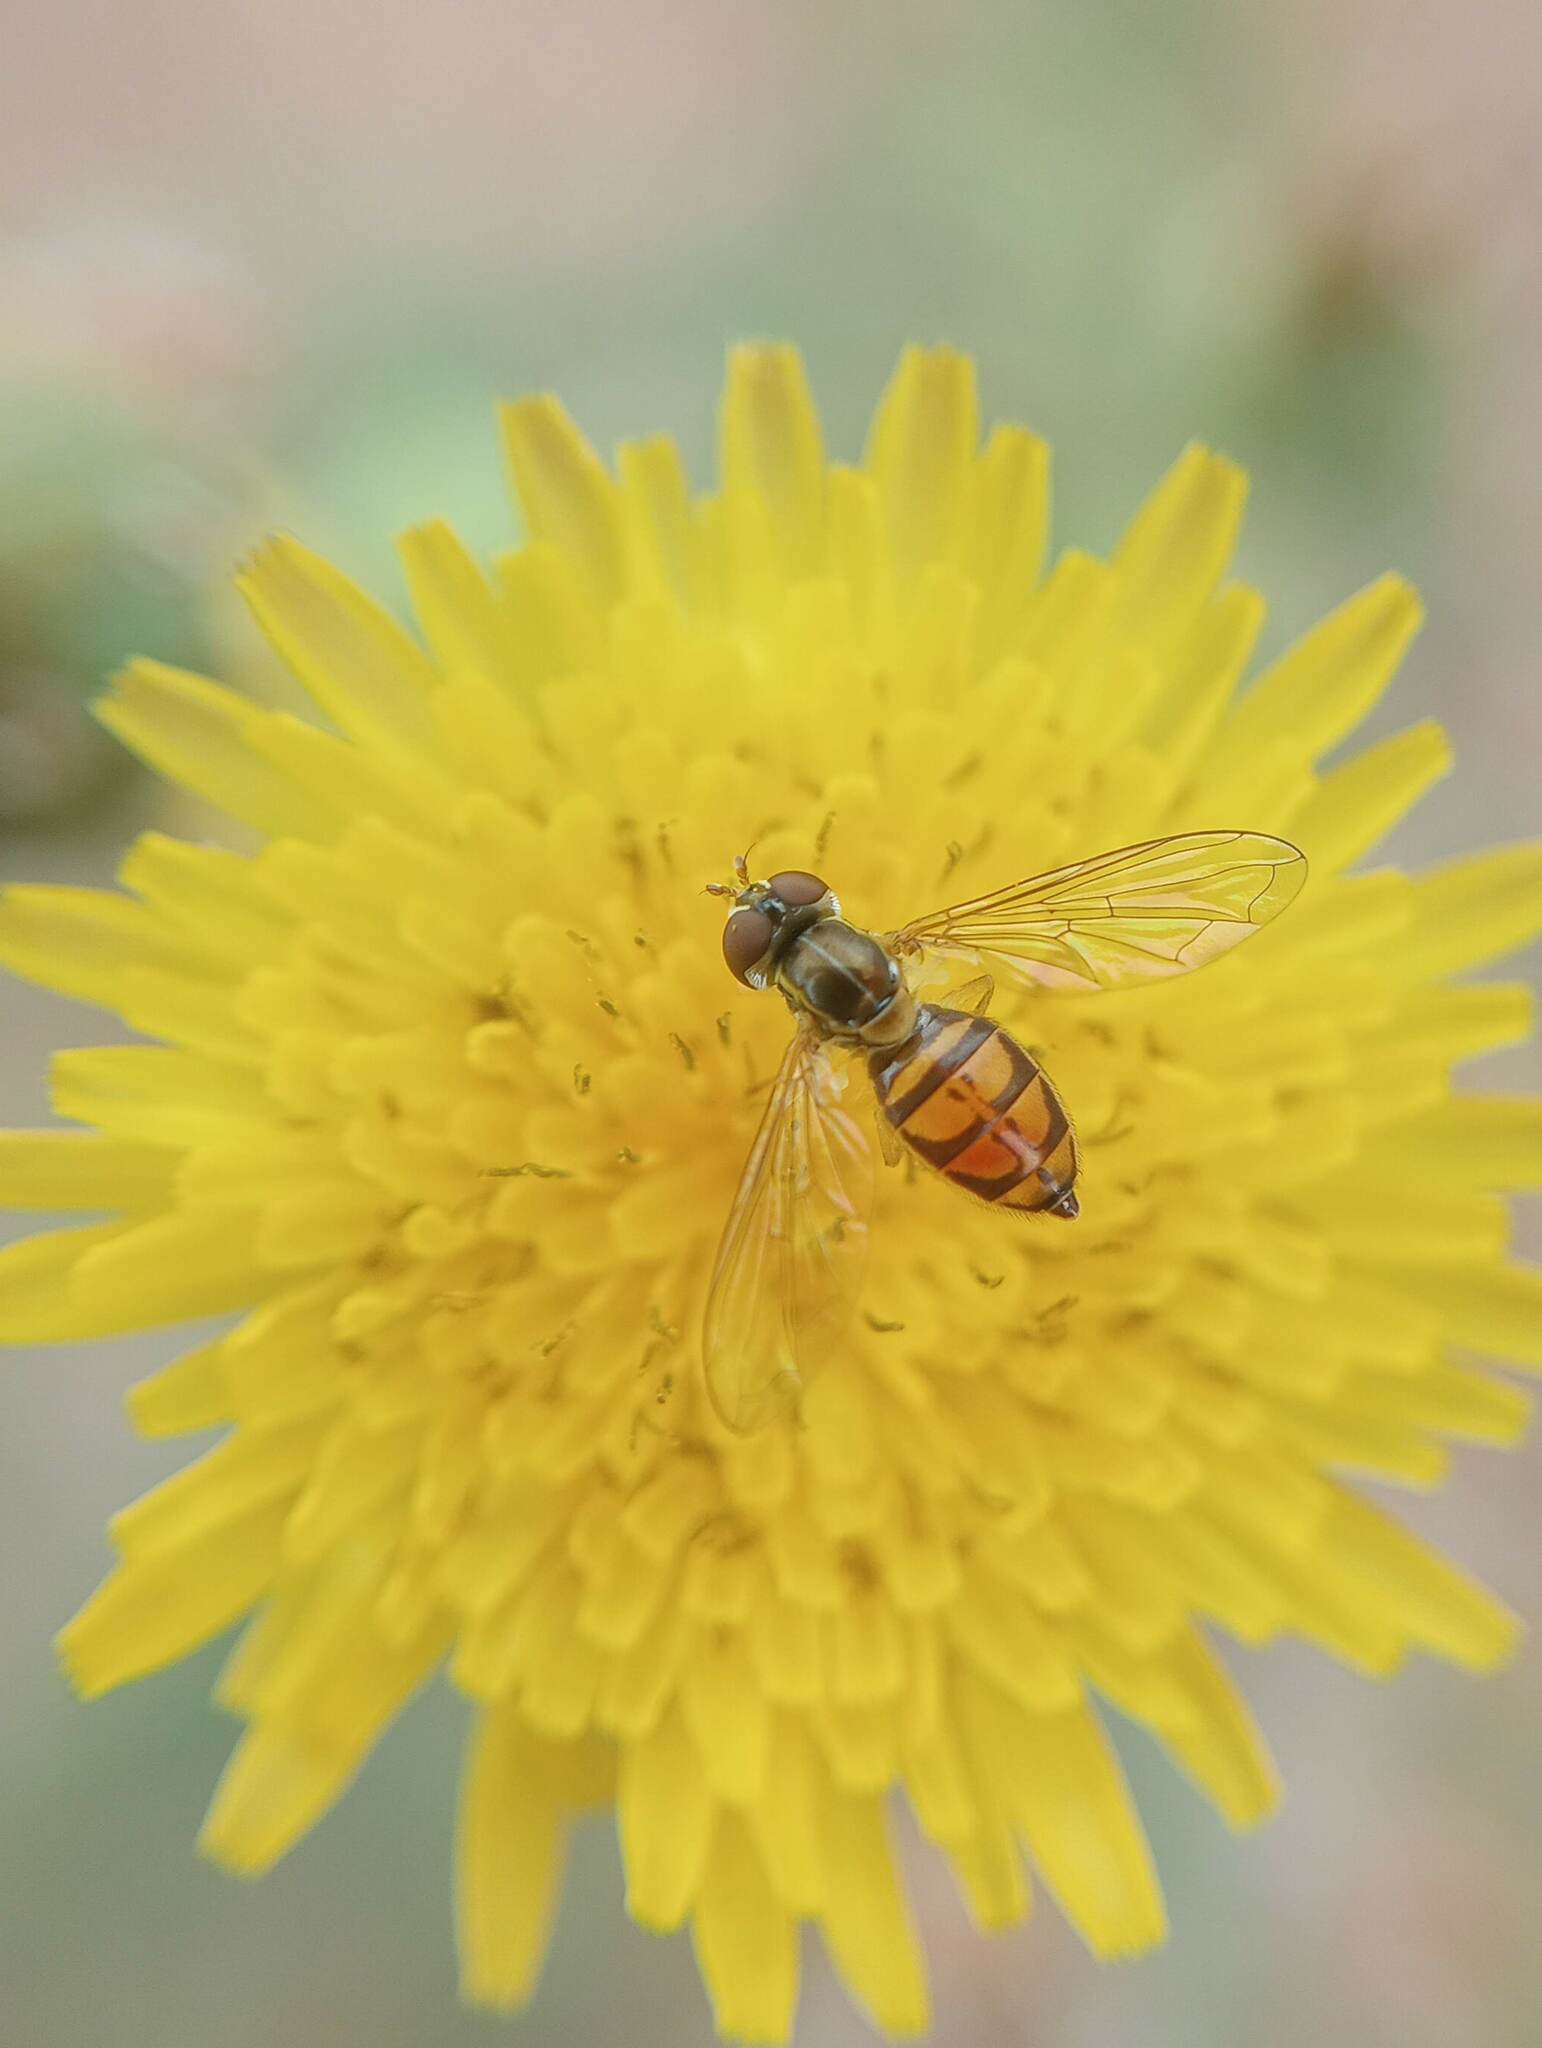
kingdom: Animalia
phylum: Arthropoda
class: Insecta
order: Diptera
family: Syrphidae
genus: Toxomerus
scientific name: Toxomerus marginatus
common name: Syrphid fly
